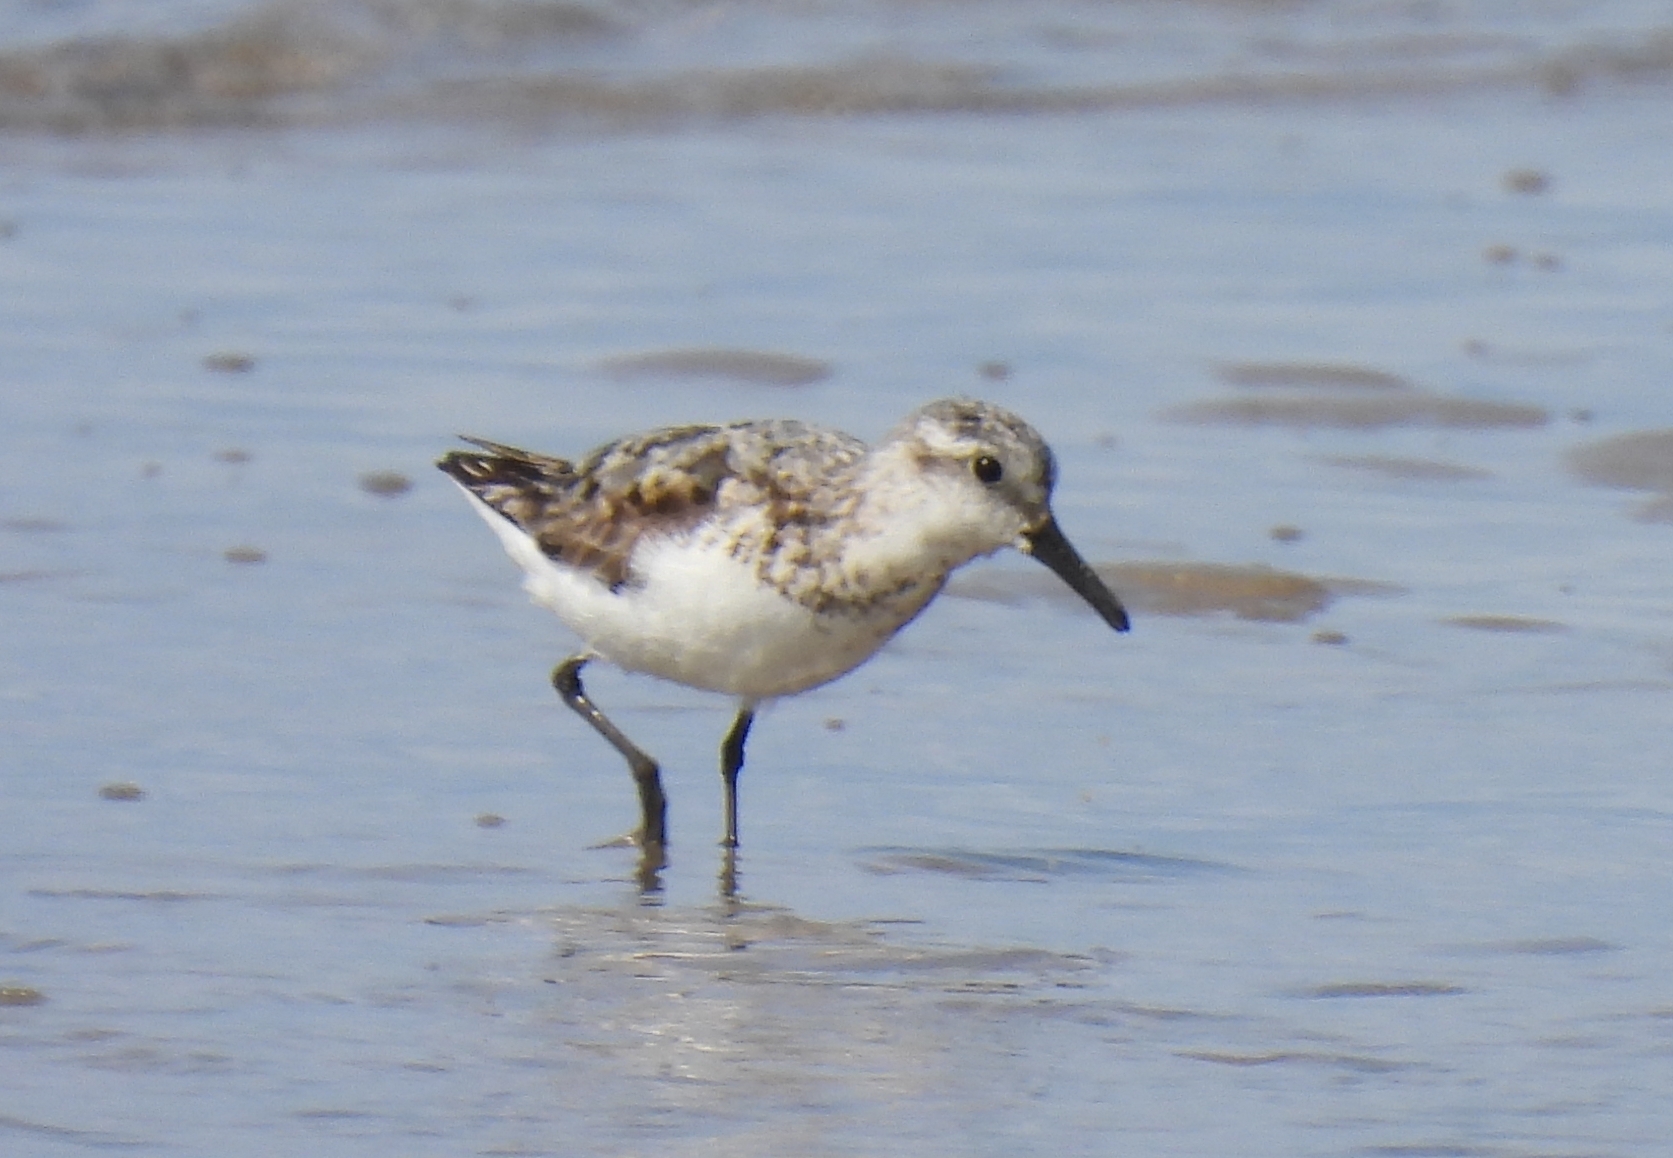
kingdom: Animalia
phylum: Chordata
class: Aves
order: Charadriiformes
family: Scolopacidae
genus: Calidris
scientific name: Calidris alba
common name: Sanderling
